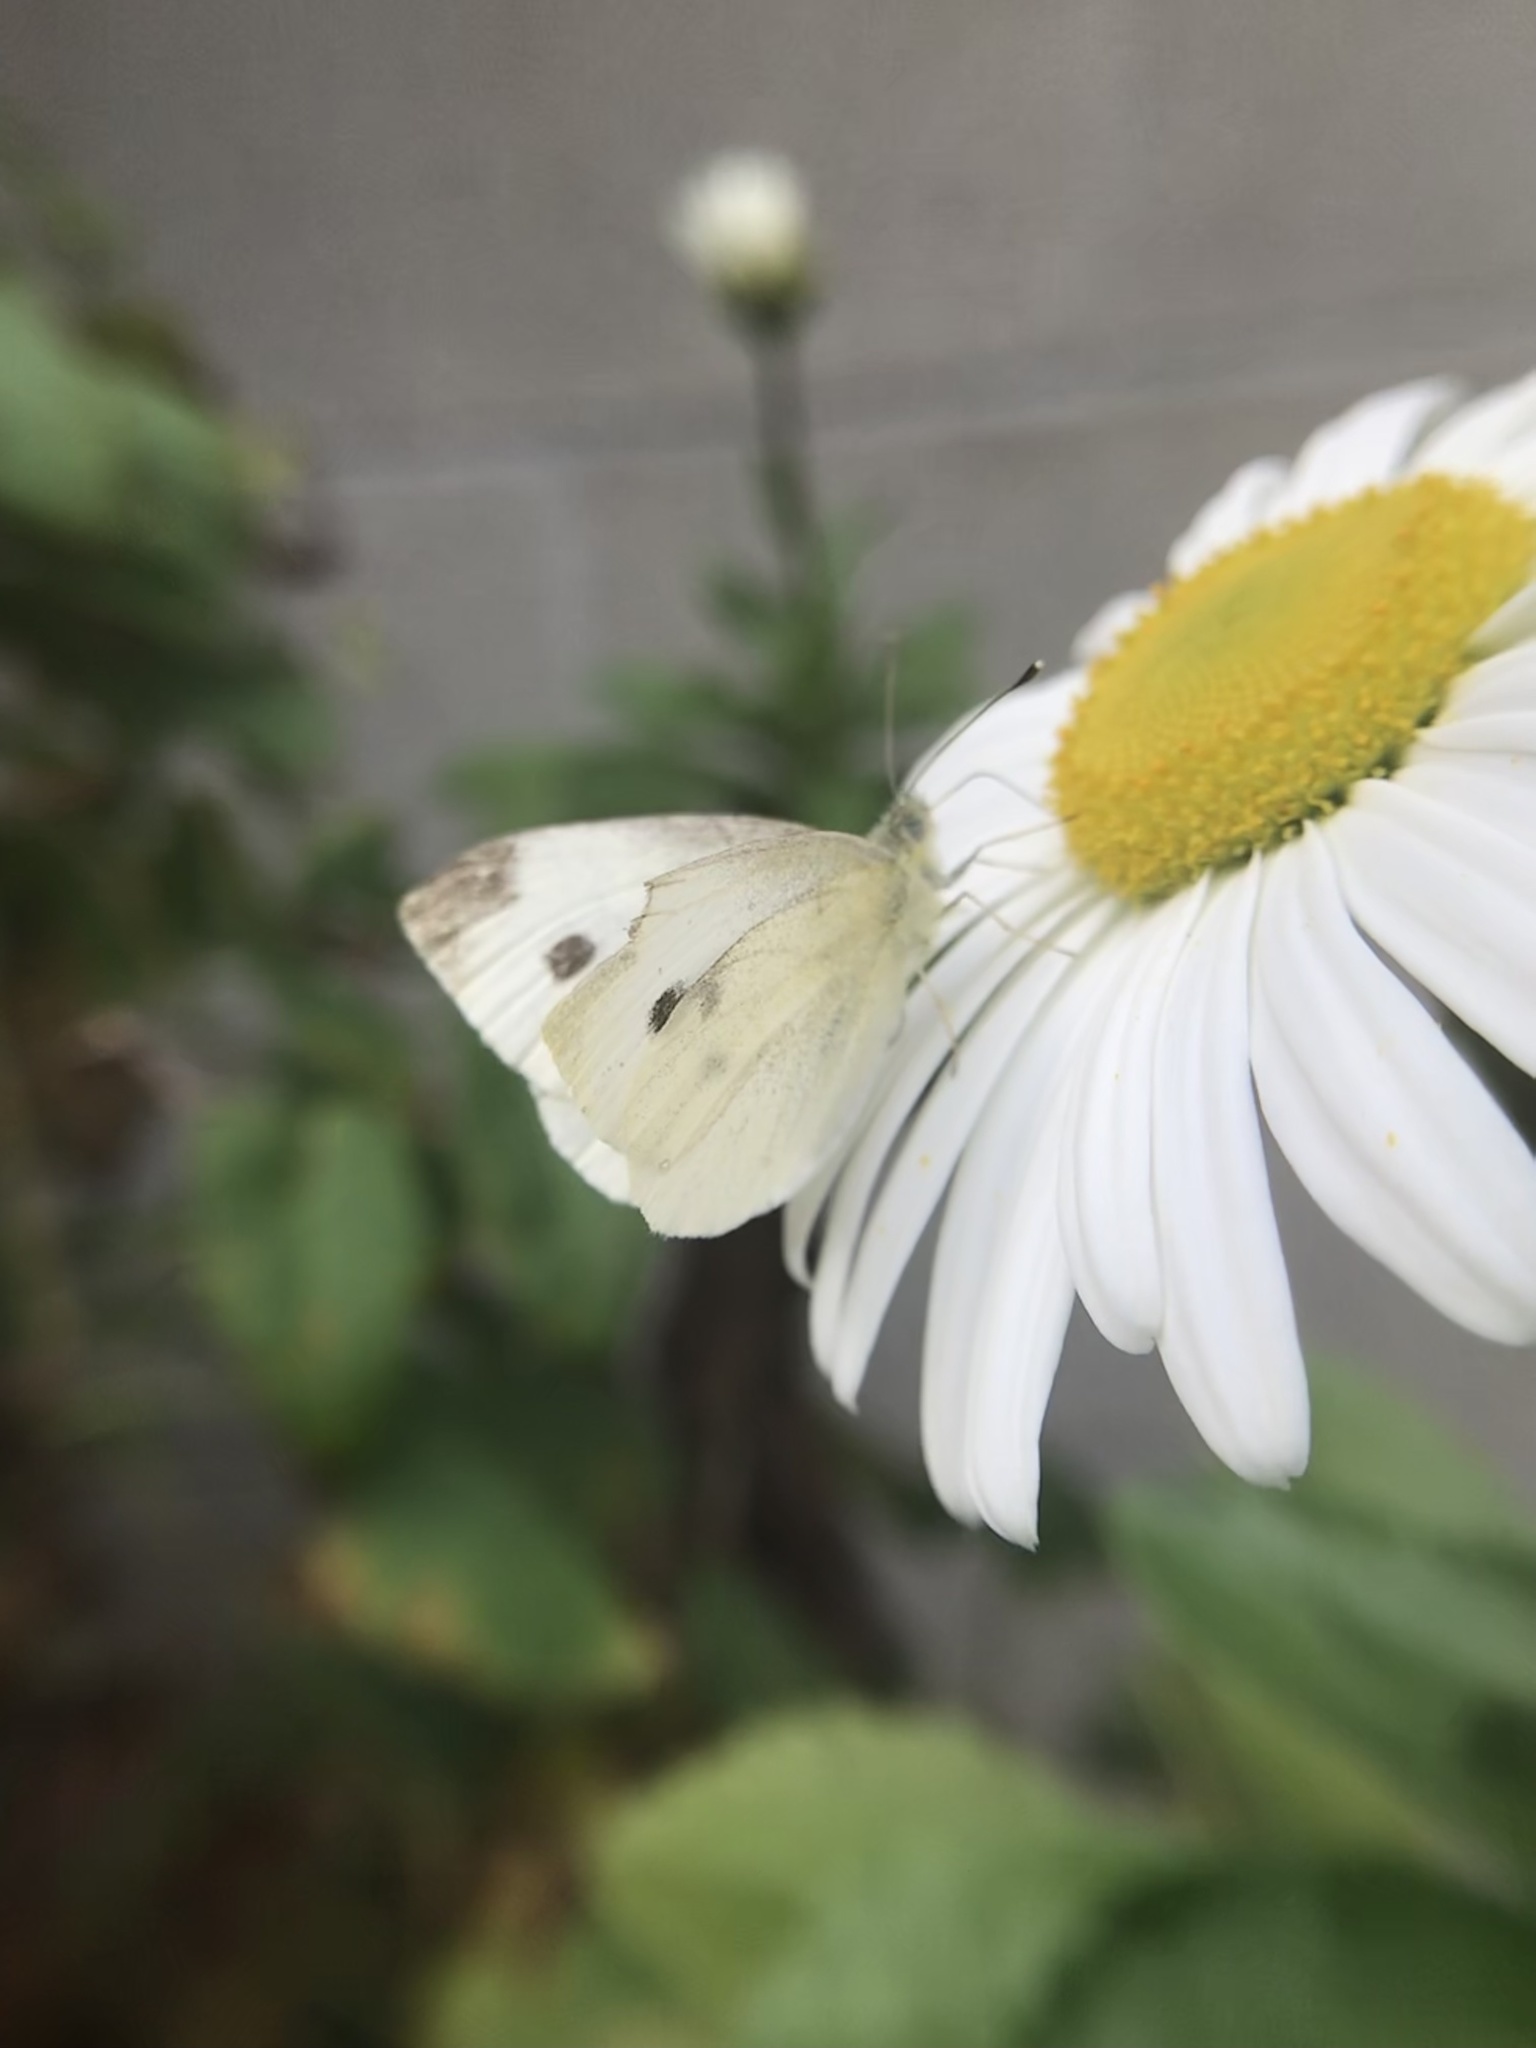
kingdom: Animalia
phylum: Arthropoda
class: Insecta
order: Lepidoptera
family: Pieridae
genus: Pieris
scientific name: Pieris rapae
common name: Small white
